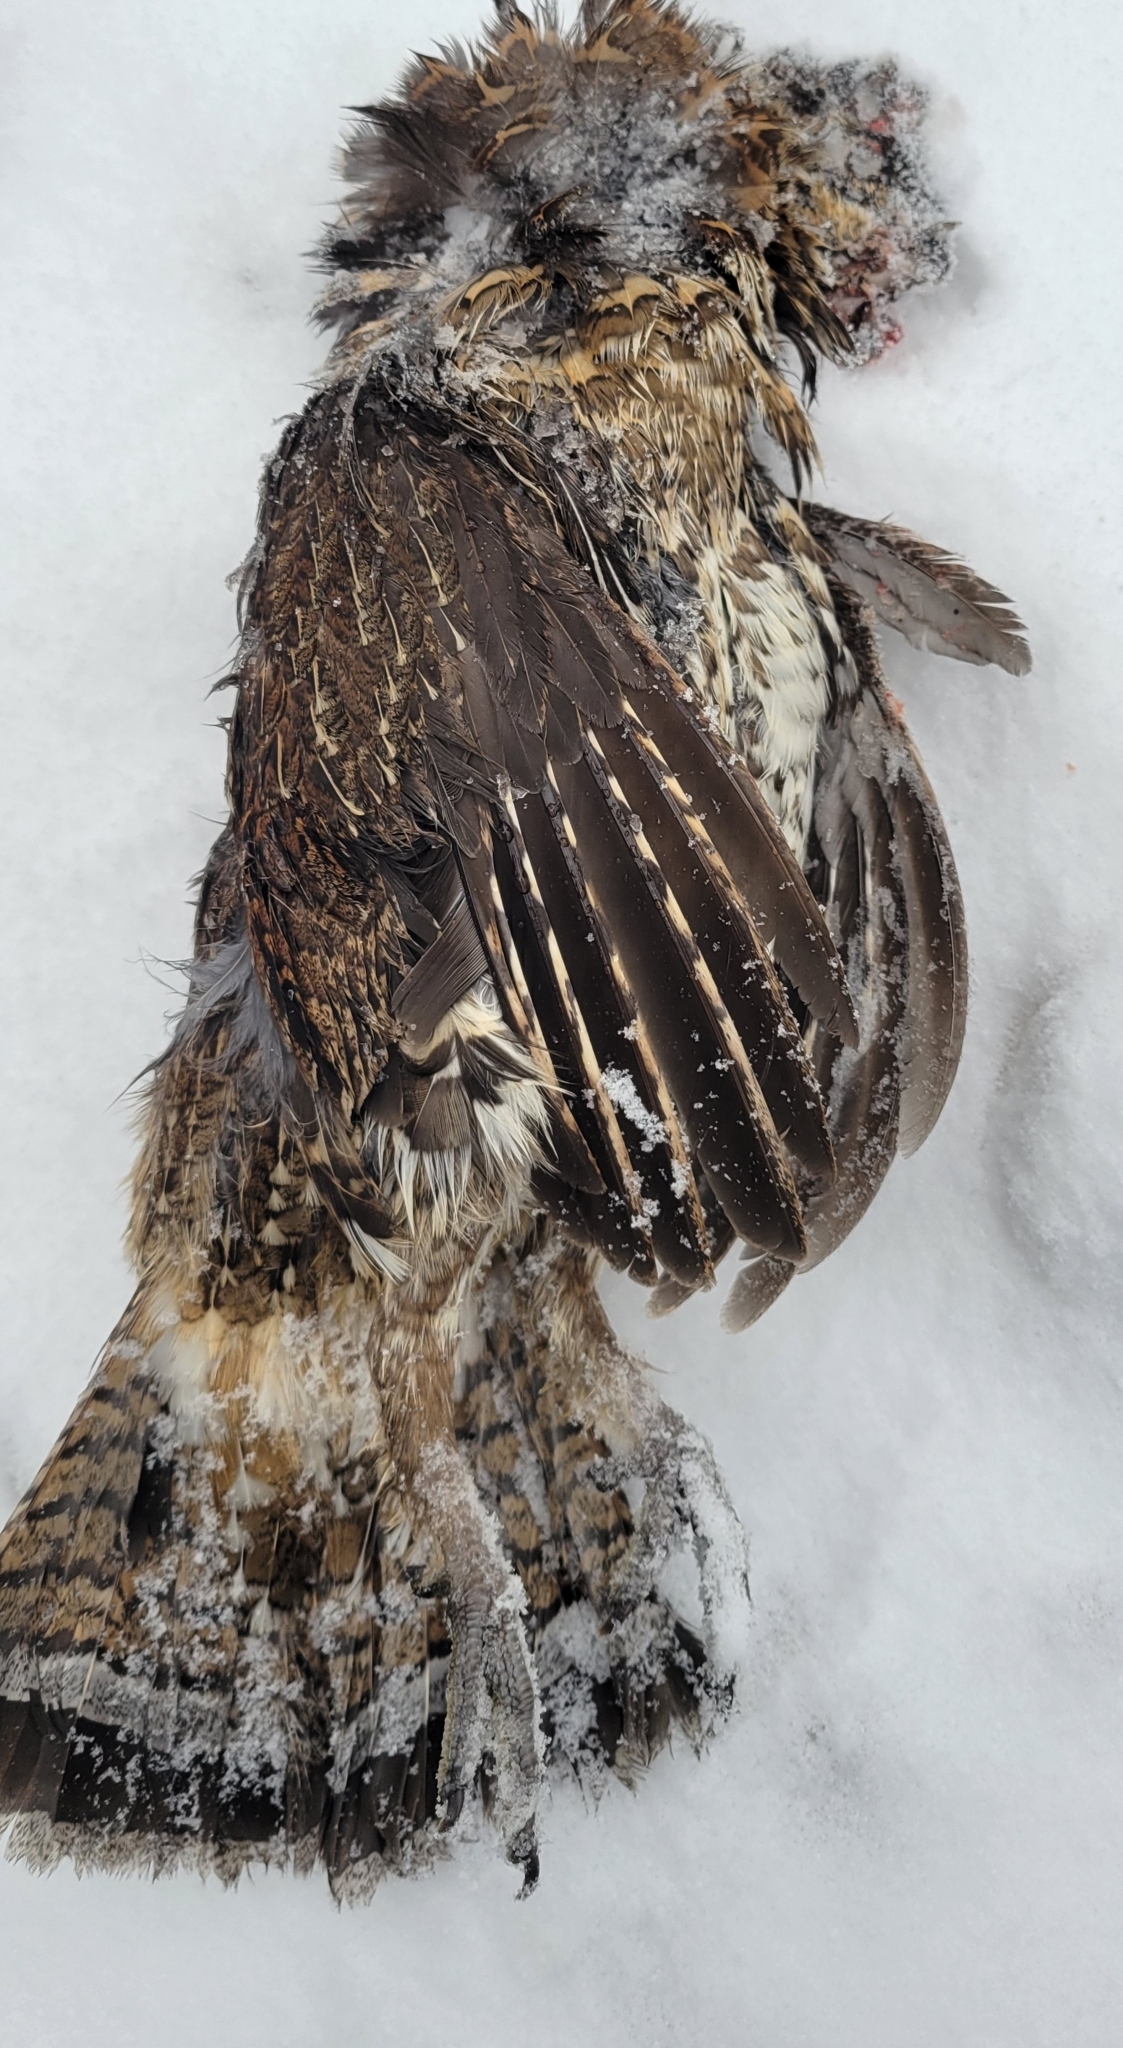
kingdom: Animalia
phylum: Chordata
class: Aves
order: Galliformes
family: Phasianidae
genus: Bonasa
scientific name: Bonasa umbellus
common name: Ruffed grouse
